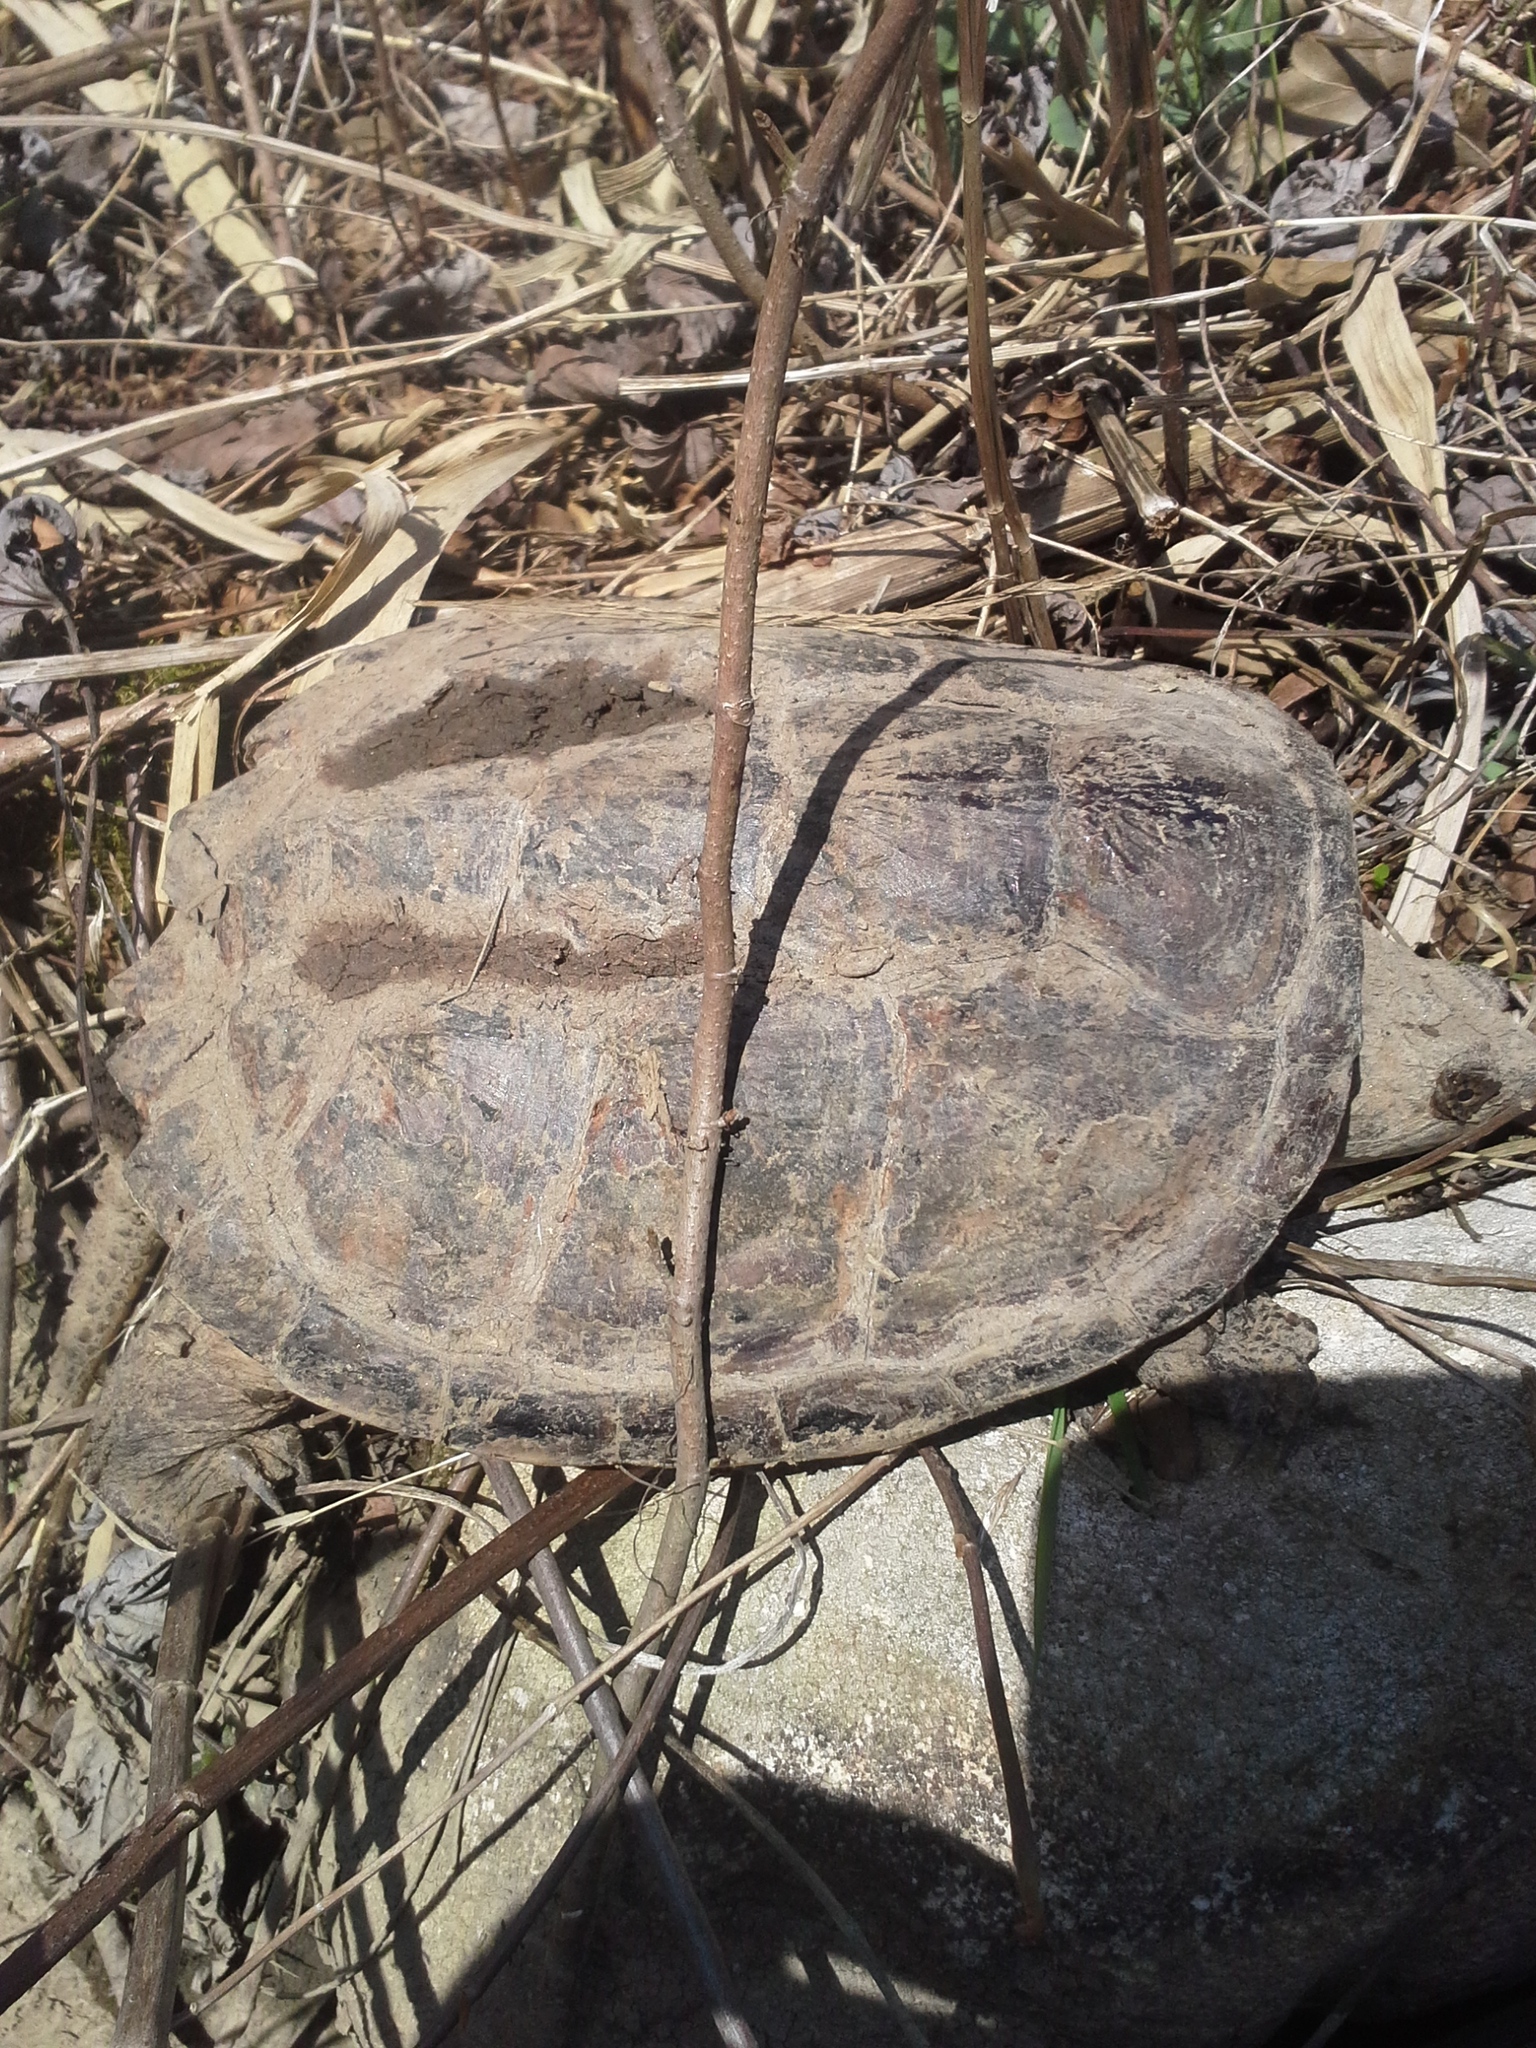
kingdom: Animalia
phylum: Chordata
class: Testudines
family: Chelydridae
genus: Chelydra
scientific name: Chelydra serpentina
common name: Common snapping turtle
